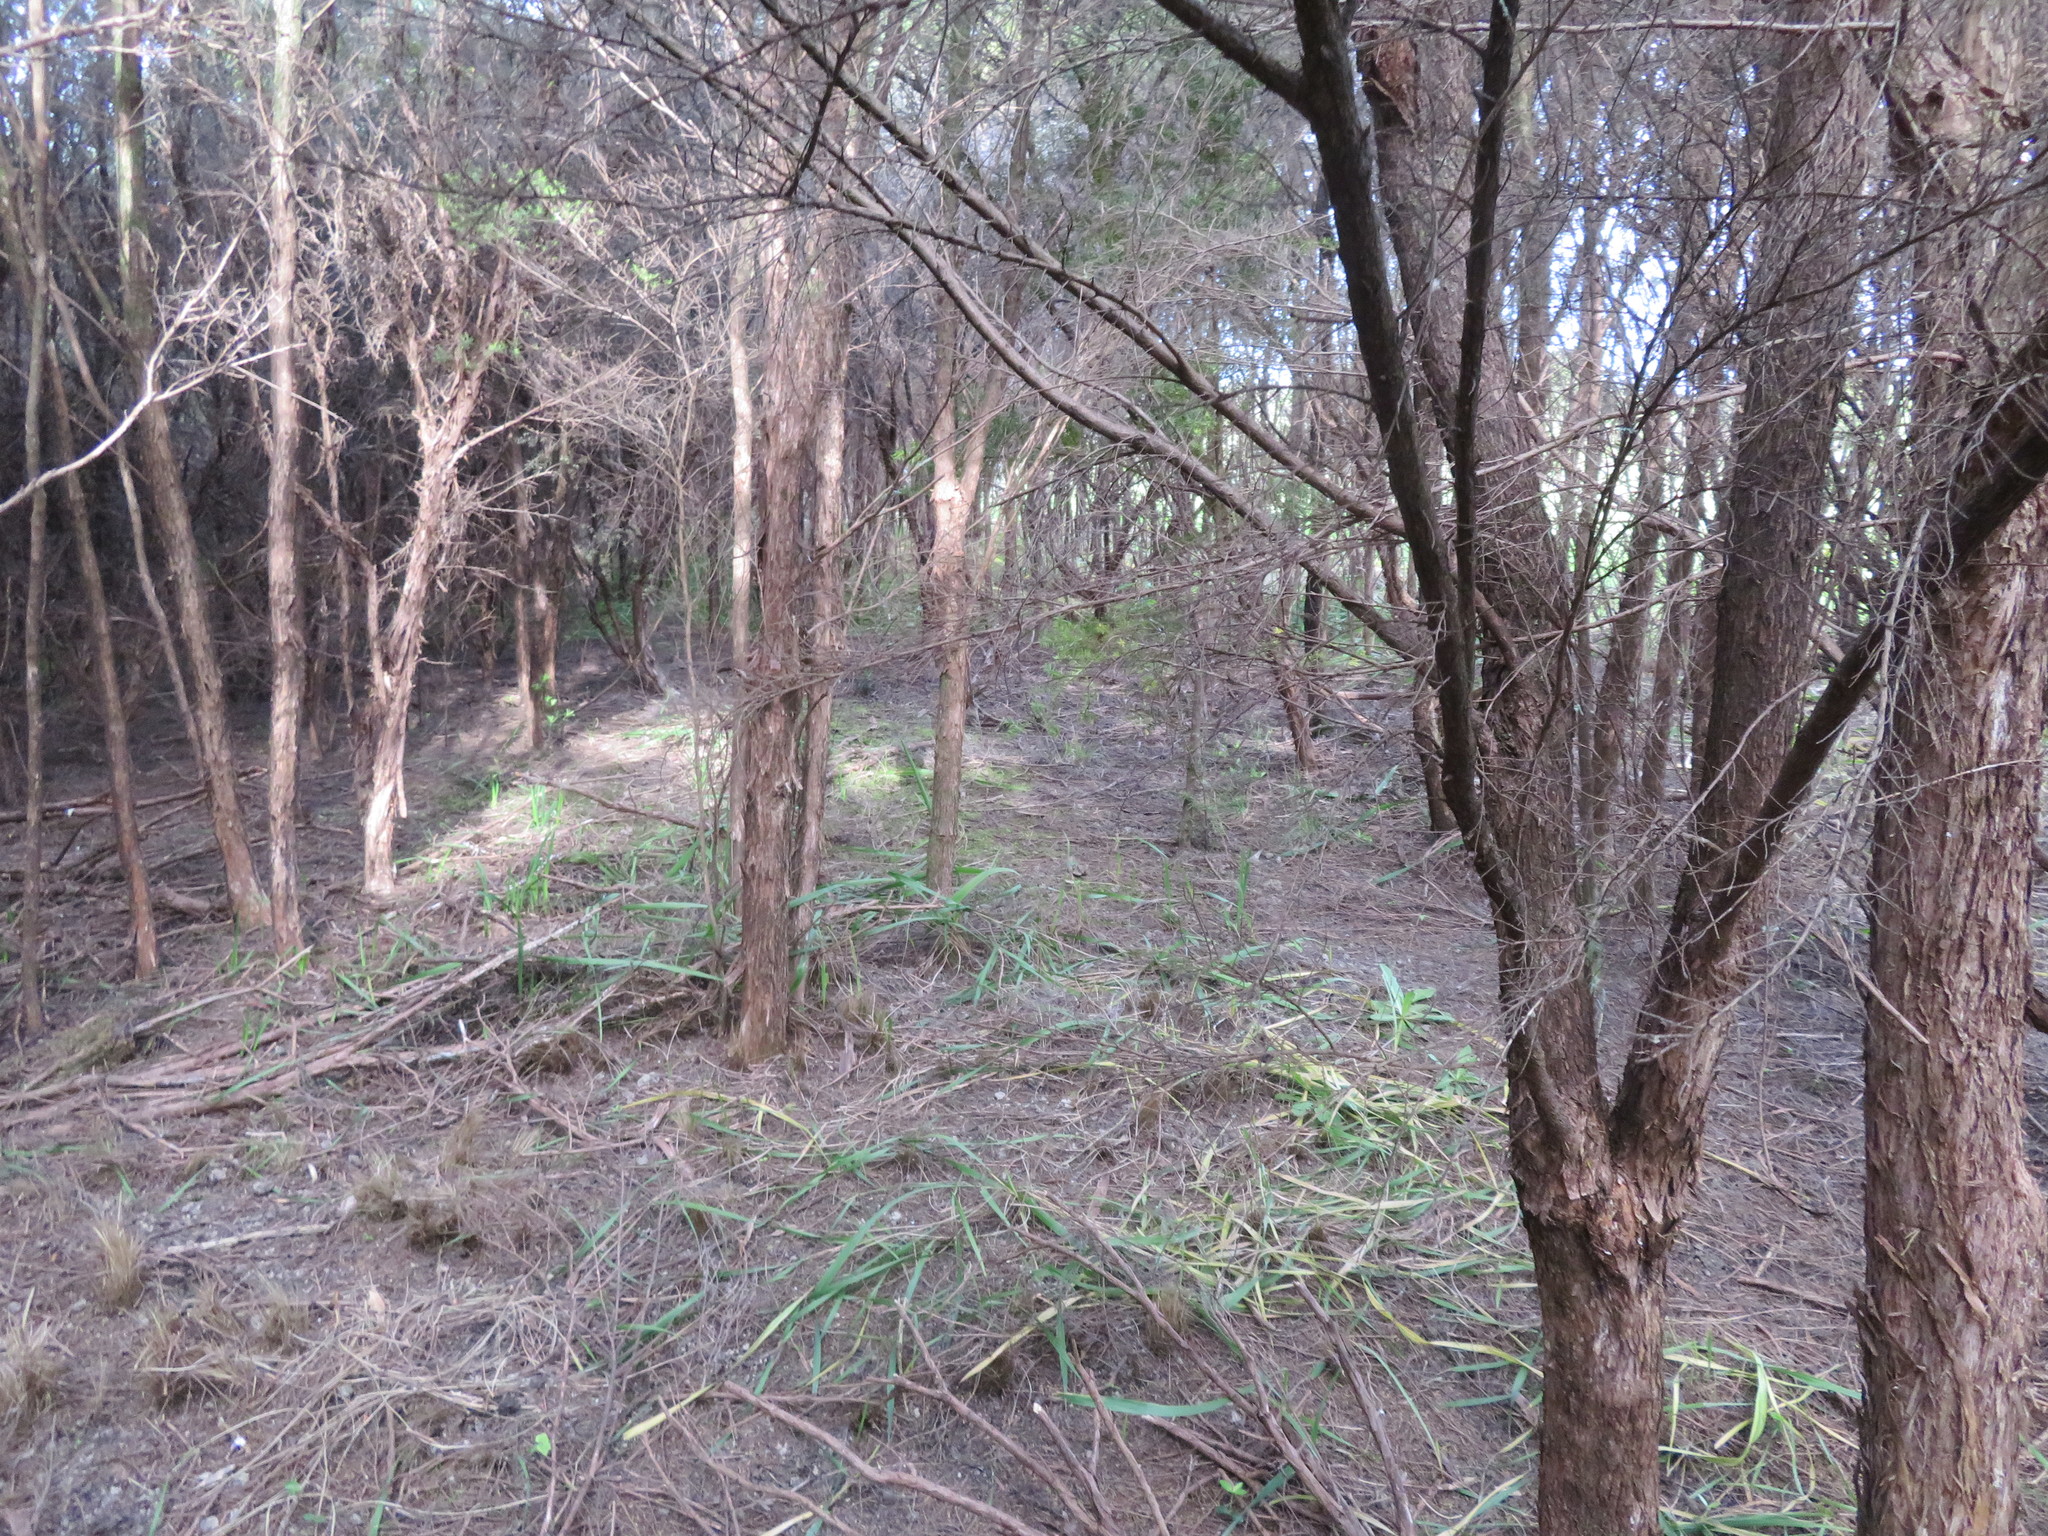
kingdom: Plantae
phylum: Tracheophyta
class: Magnoliopsida
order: Myrtales
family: Myrtaceae
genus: Leptospermum
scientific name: Leptospermum scoparium
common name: Broom tea-tree
